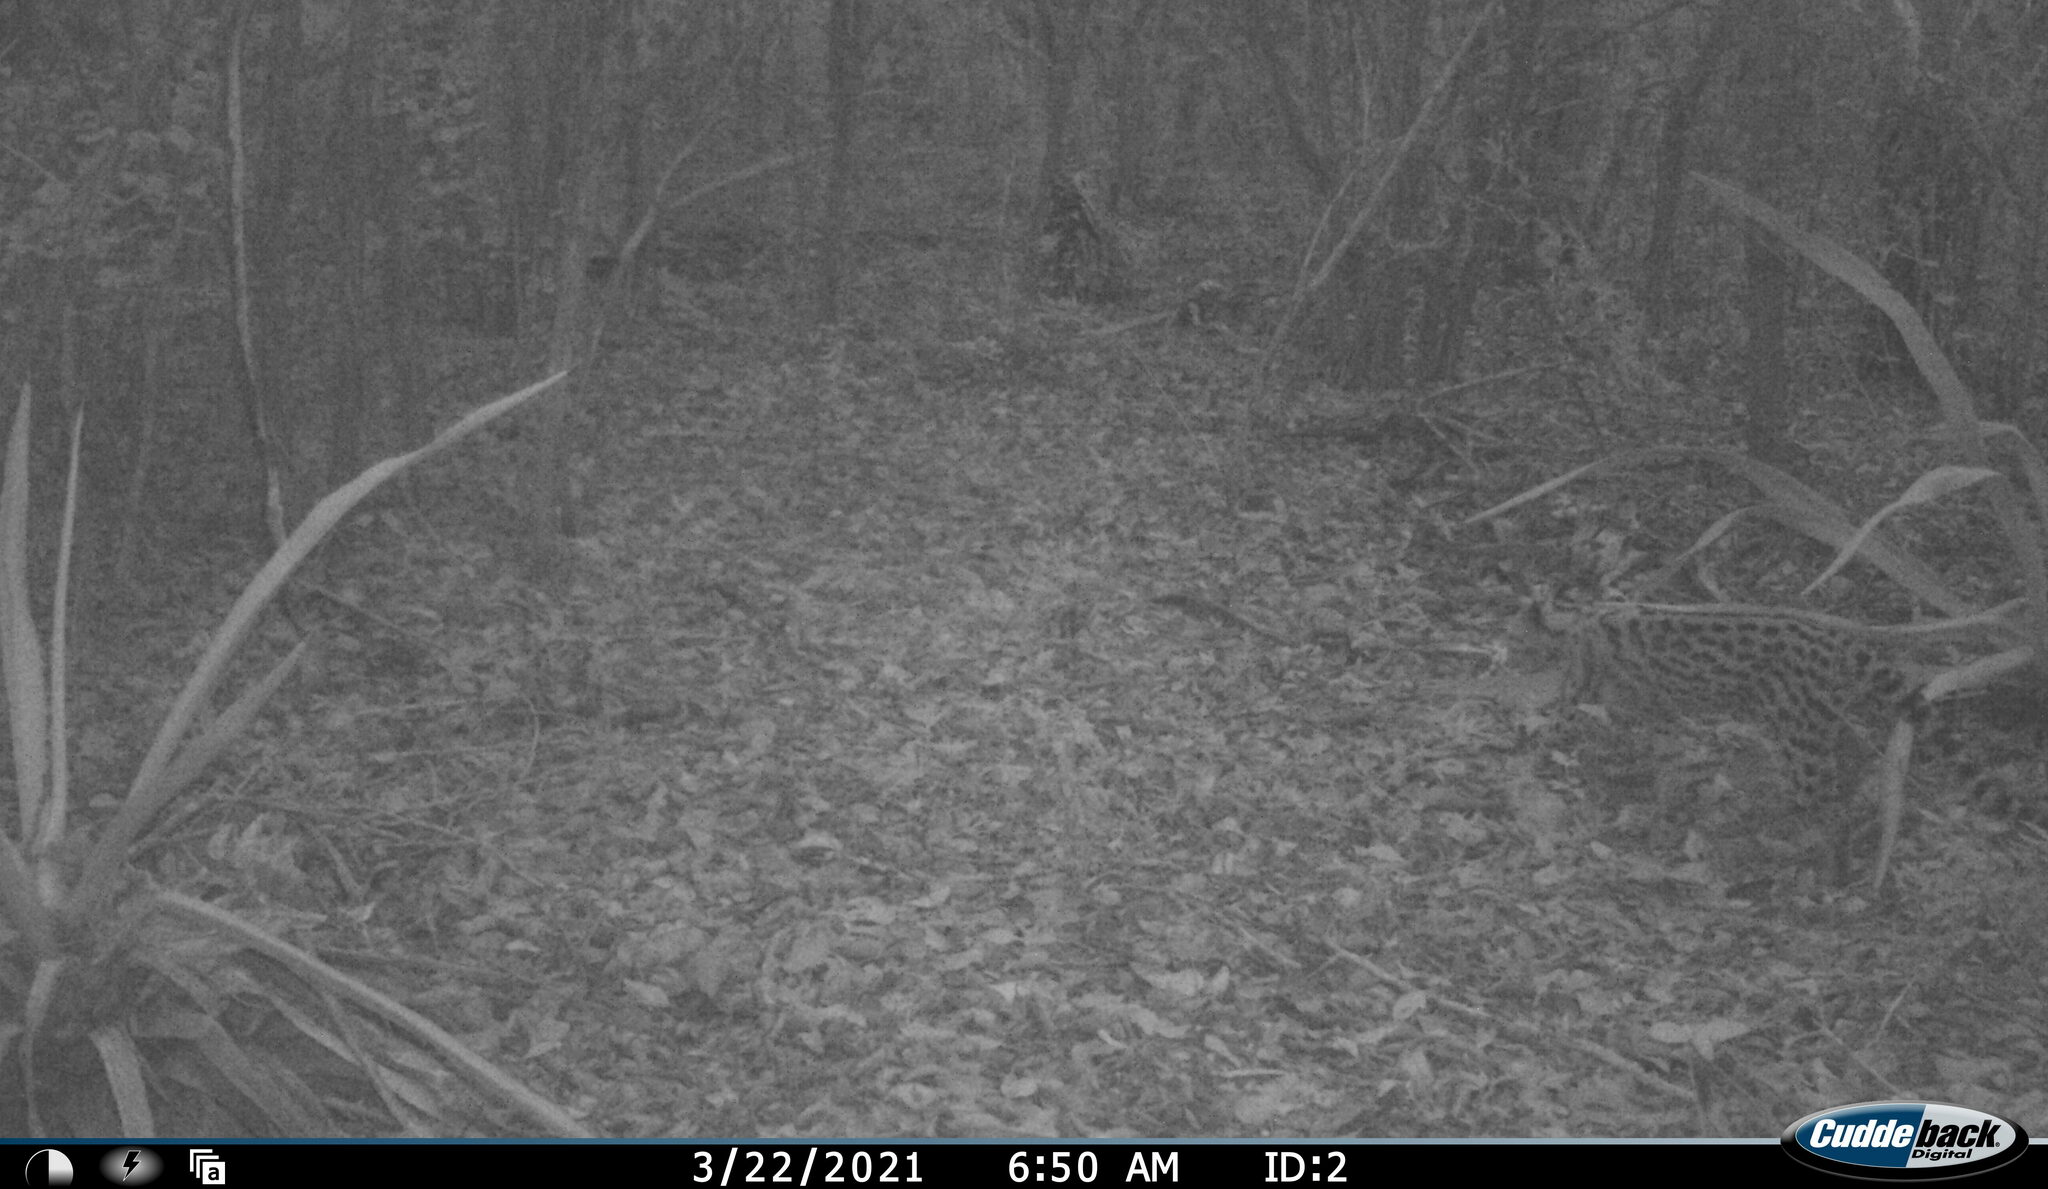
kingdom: Animalia
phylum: Chordata
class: Mammalia
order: Carnivora
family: Felidae
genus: Leopardus
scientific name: Leopardus wiedii
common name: Margay
